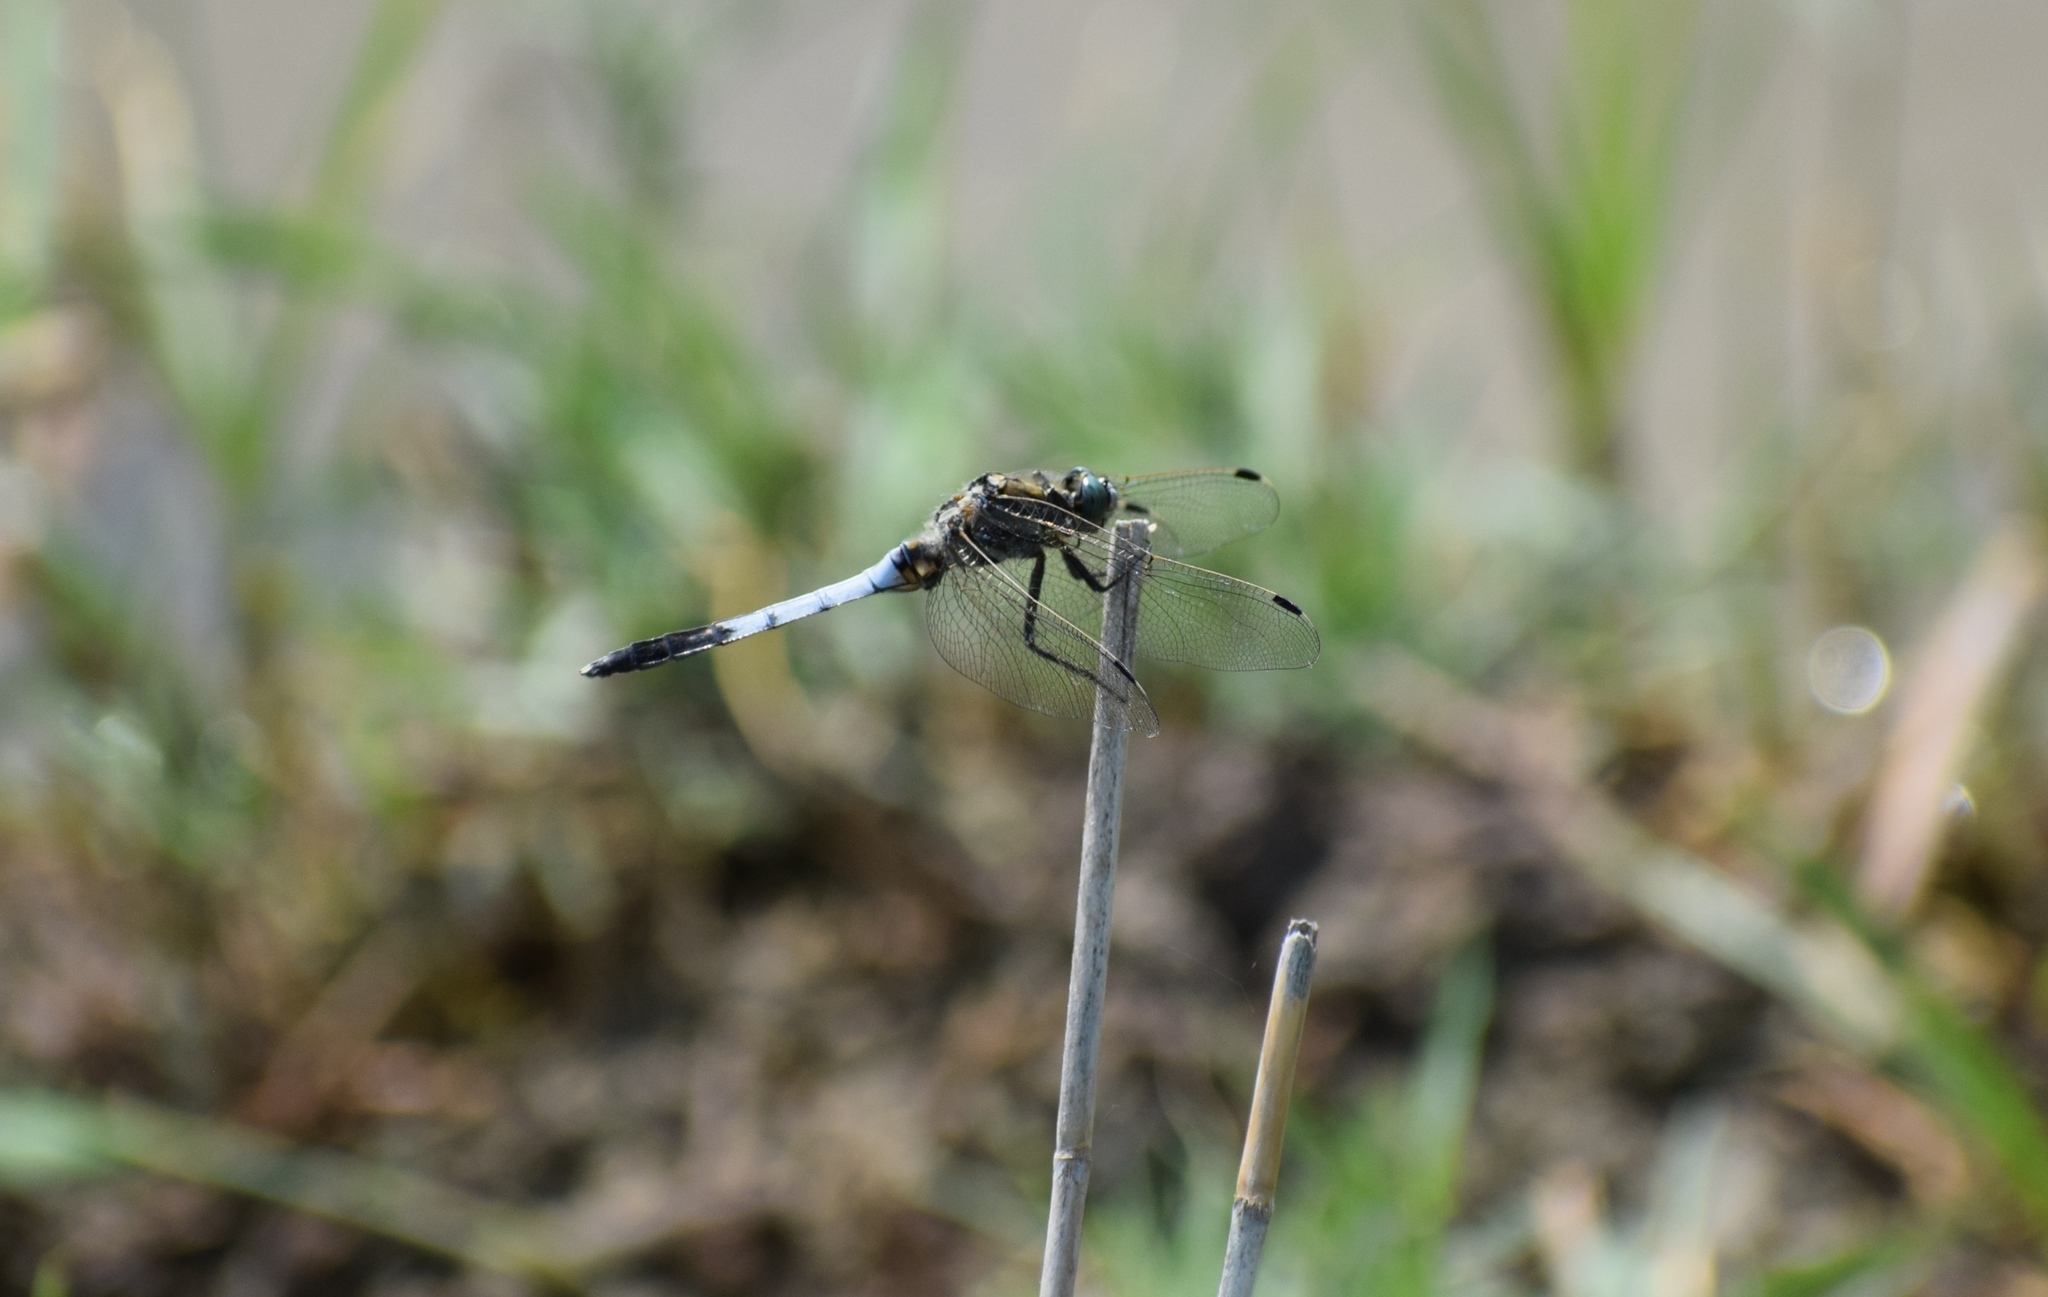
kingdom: Animalia
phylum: Arthropoda
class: Insecta
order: Odonata
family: Libellulidae
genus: Orthetrum
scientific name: Orthetrum albistylum
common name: White-tailed skimmer
